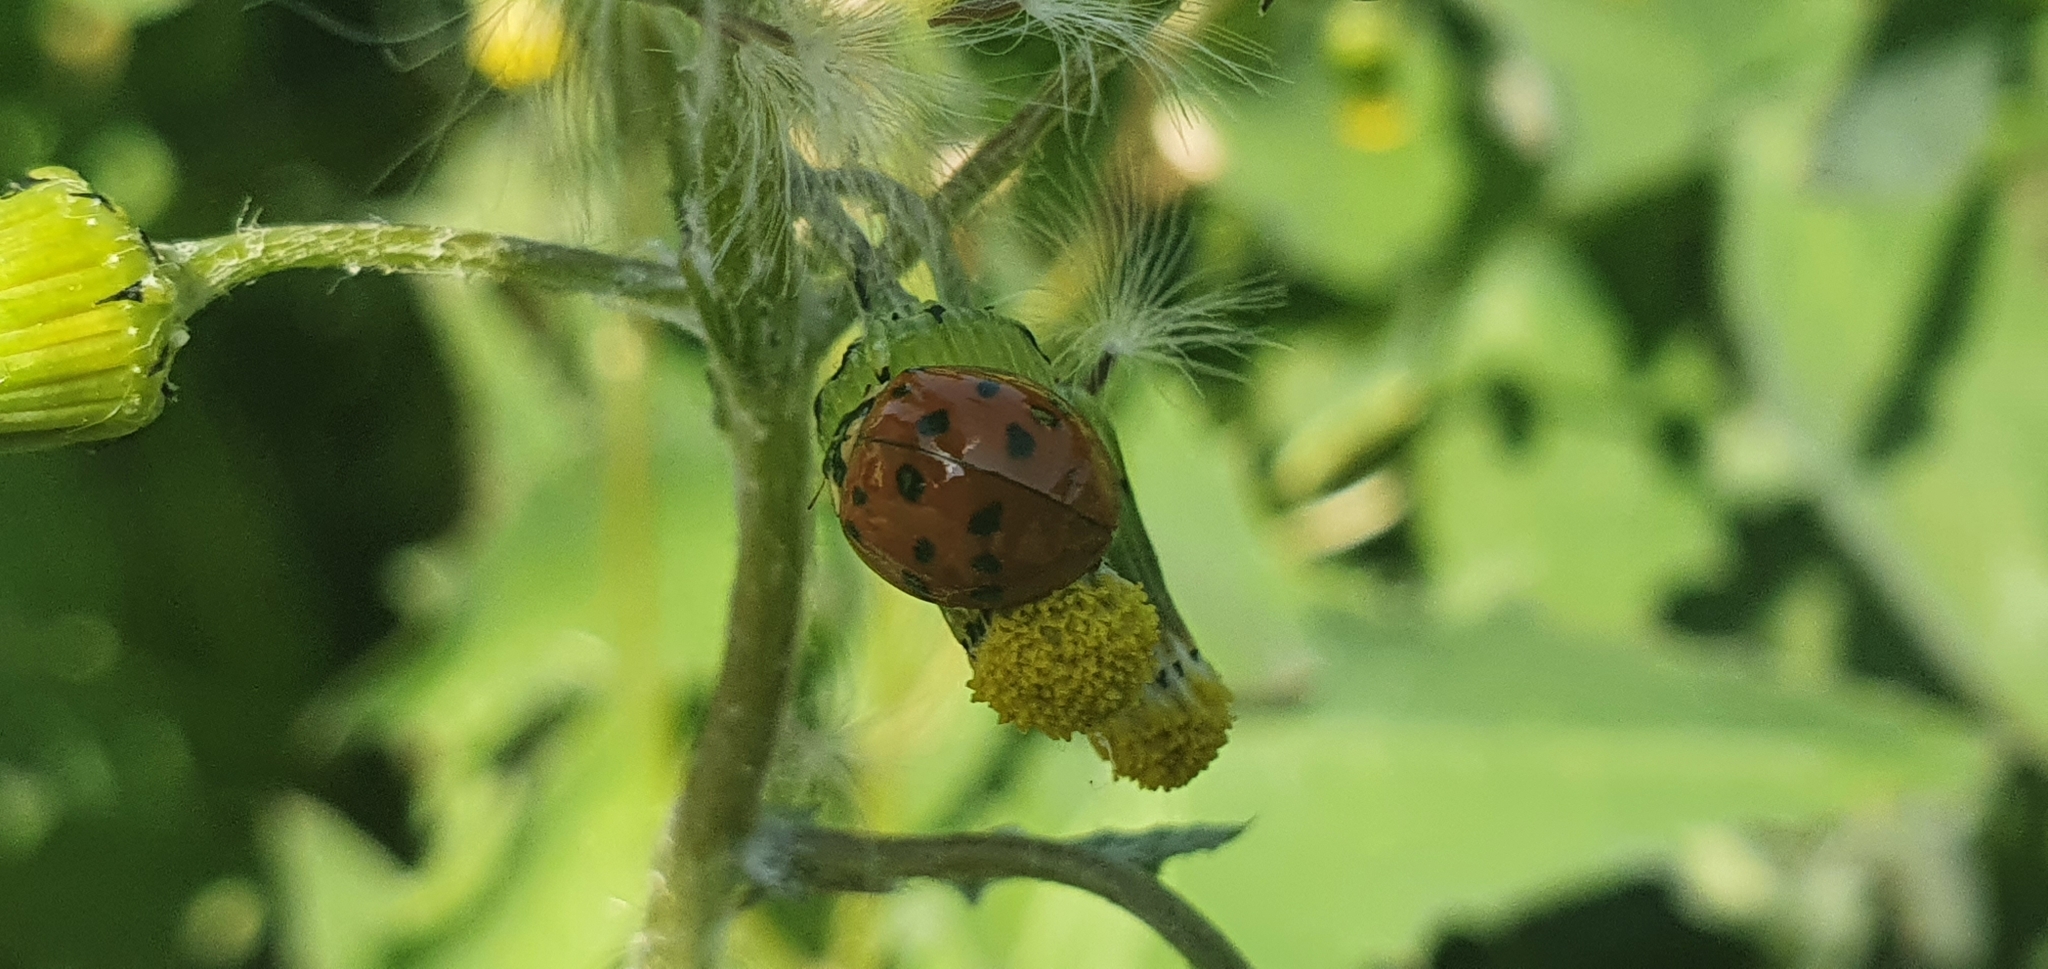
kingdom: Animalia
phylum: Arthropoda
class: Insecta
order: Coleoptera
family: Coccinellidae
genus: Harmonia
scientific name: Harmonia axyridis
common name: Harlequin ladybird
